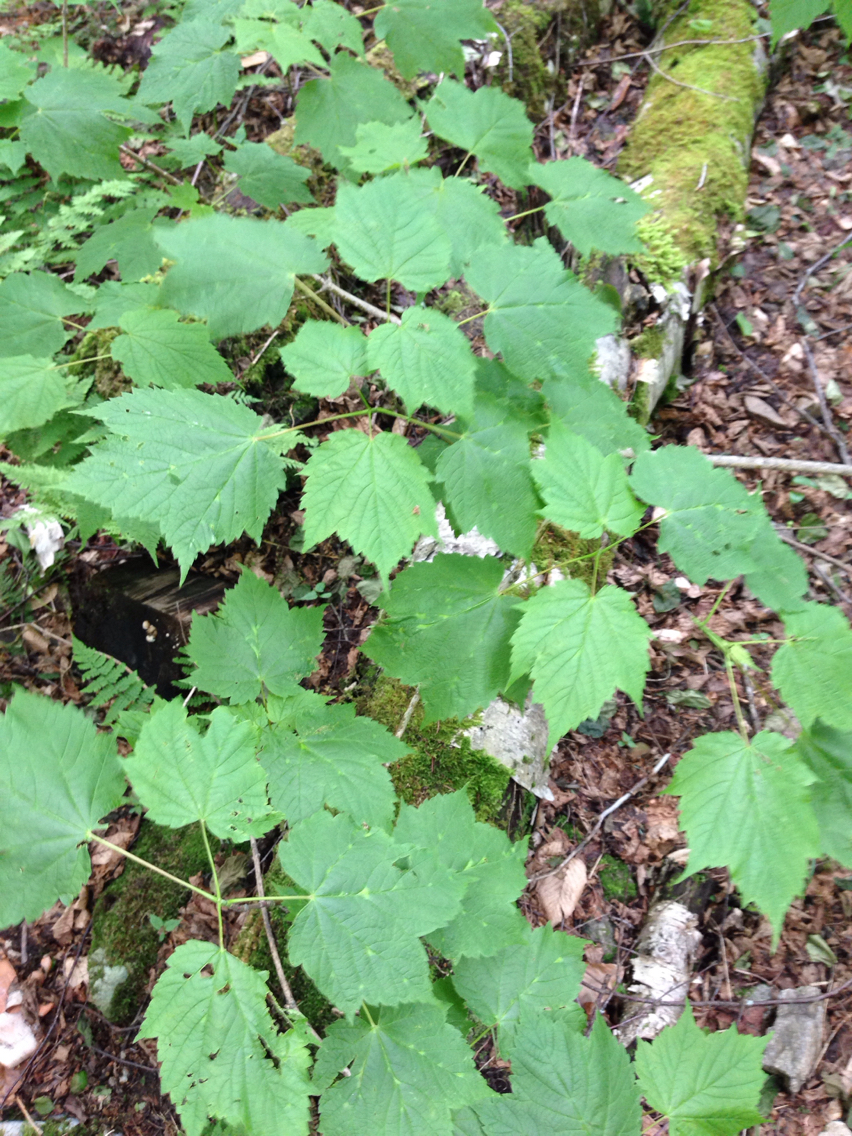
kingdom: Plantae
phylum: Tracheophyta
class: Magnoliopsida
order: Sapindales
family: Sapindaceae
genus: Acer
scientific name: Acer spicatum
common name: Mountain maple
